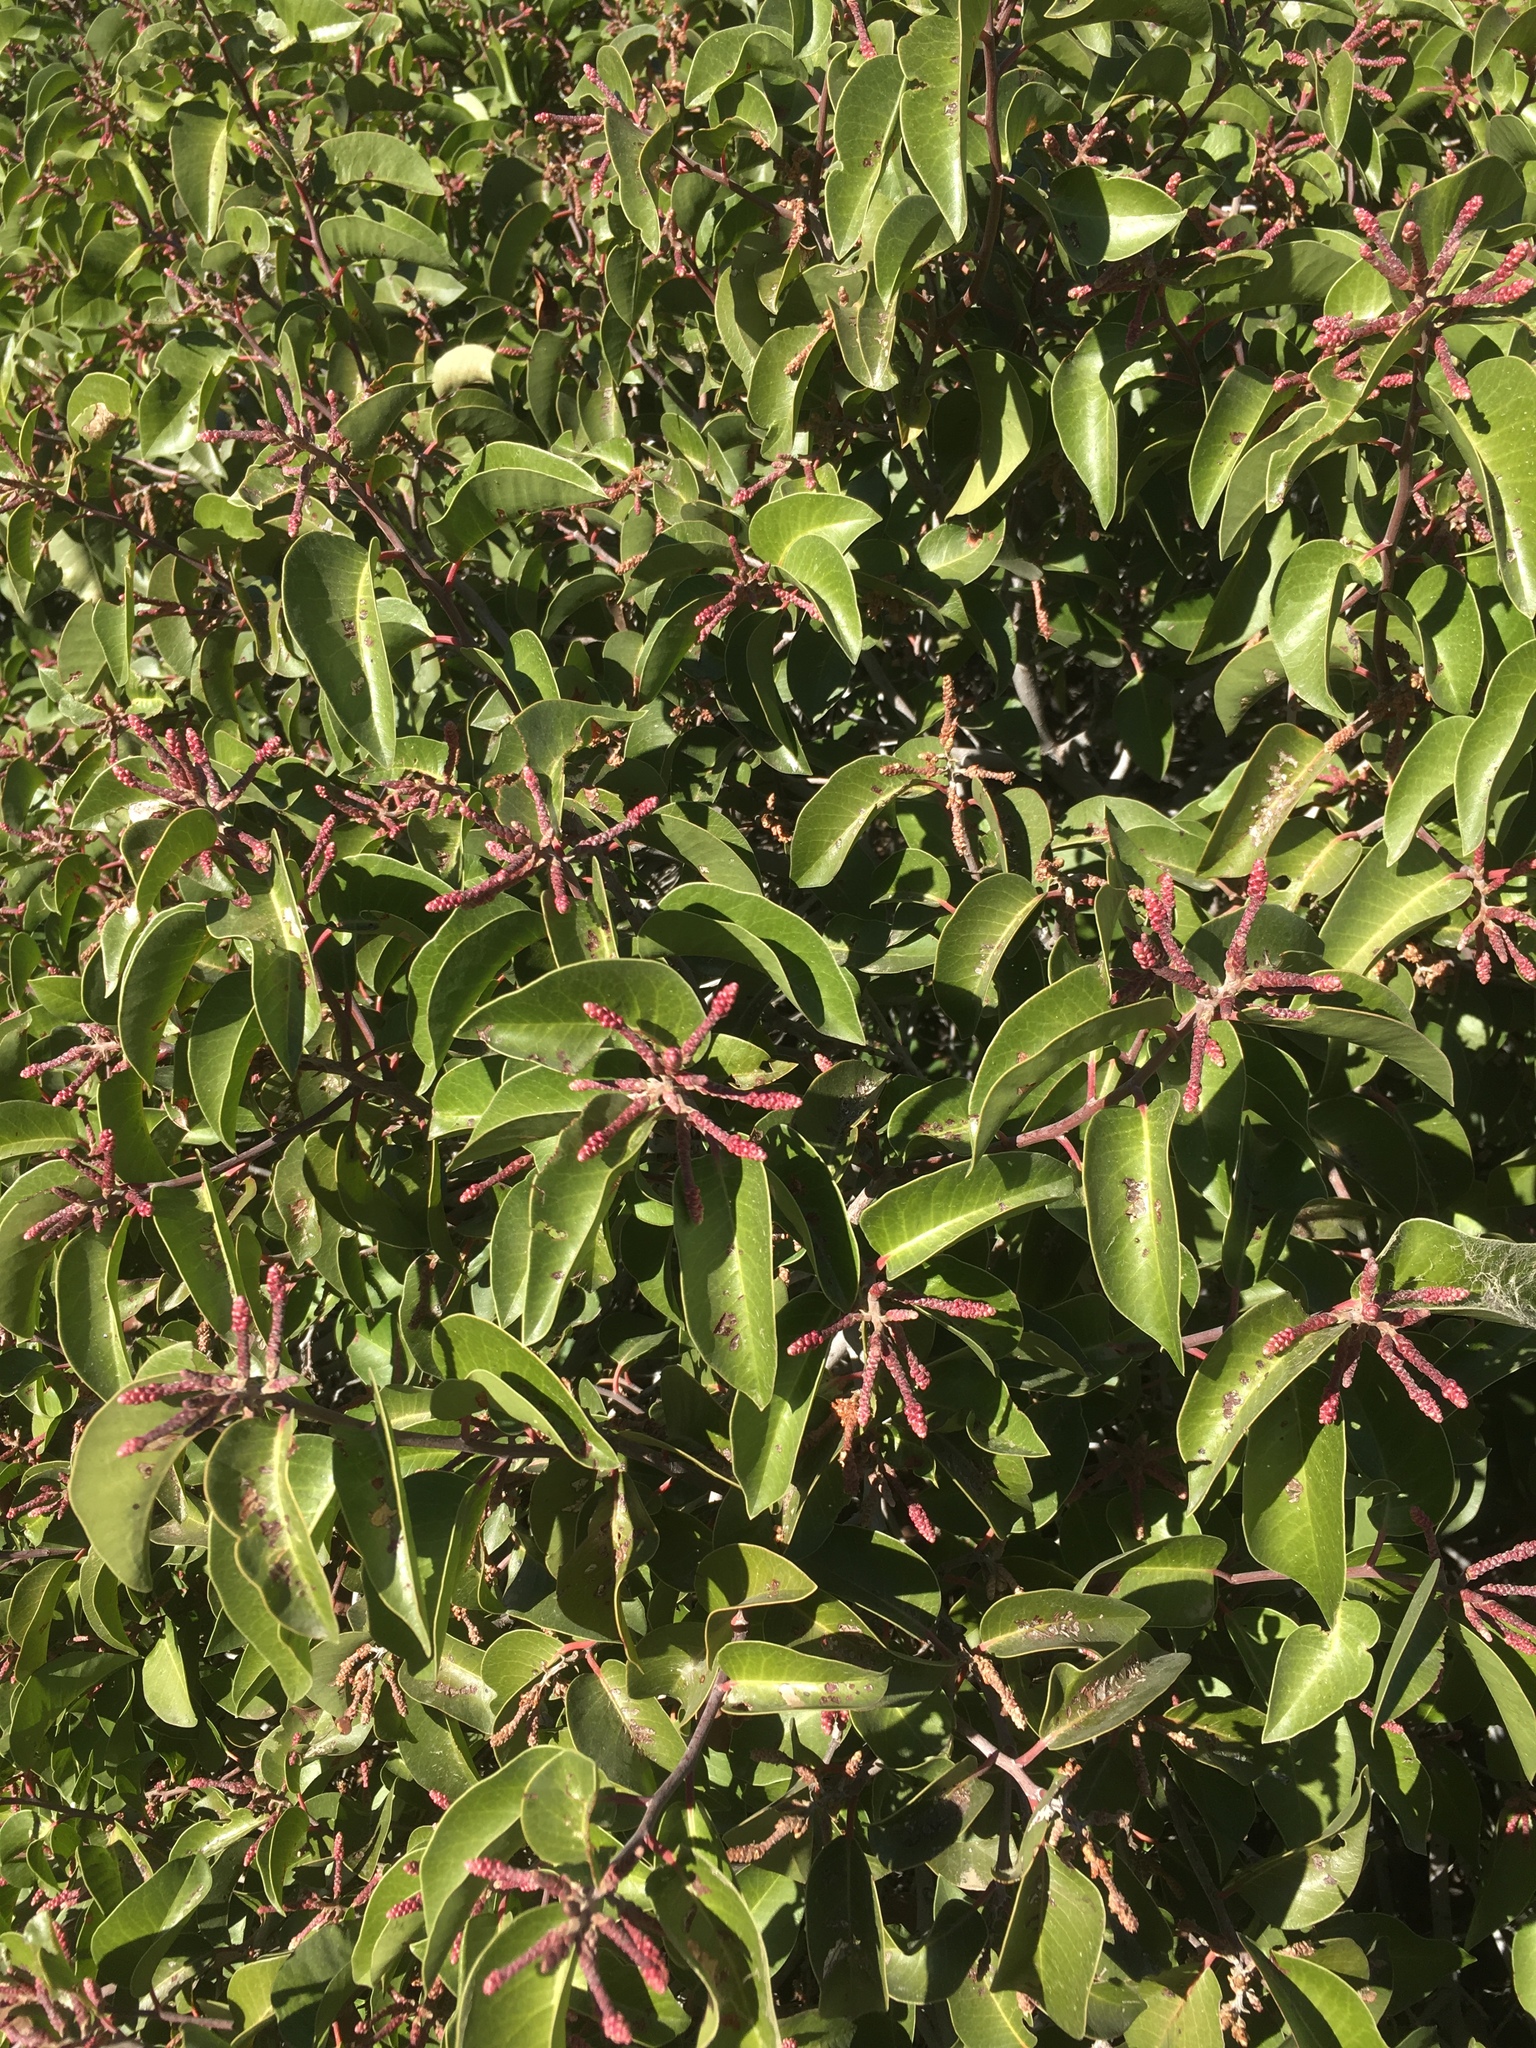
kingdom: Plantae
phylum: Tracheophyta
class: Magnoliopsida
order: Sapindales
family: Anacardiaceae
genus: Rhus
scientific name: Rhus ovata
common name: Sugar sumac
